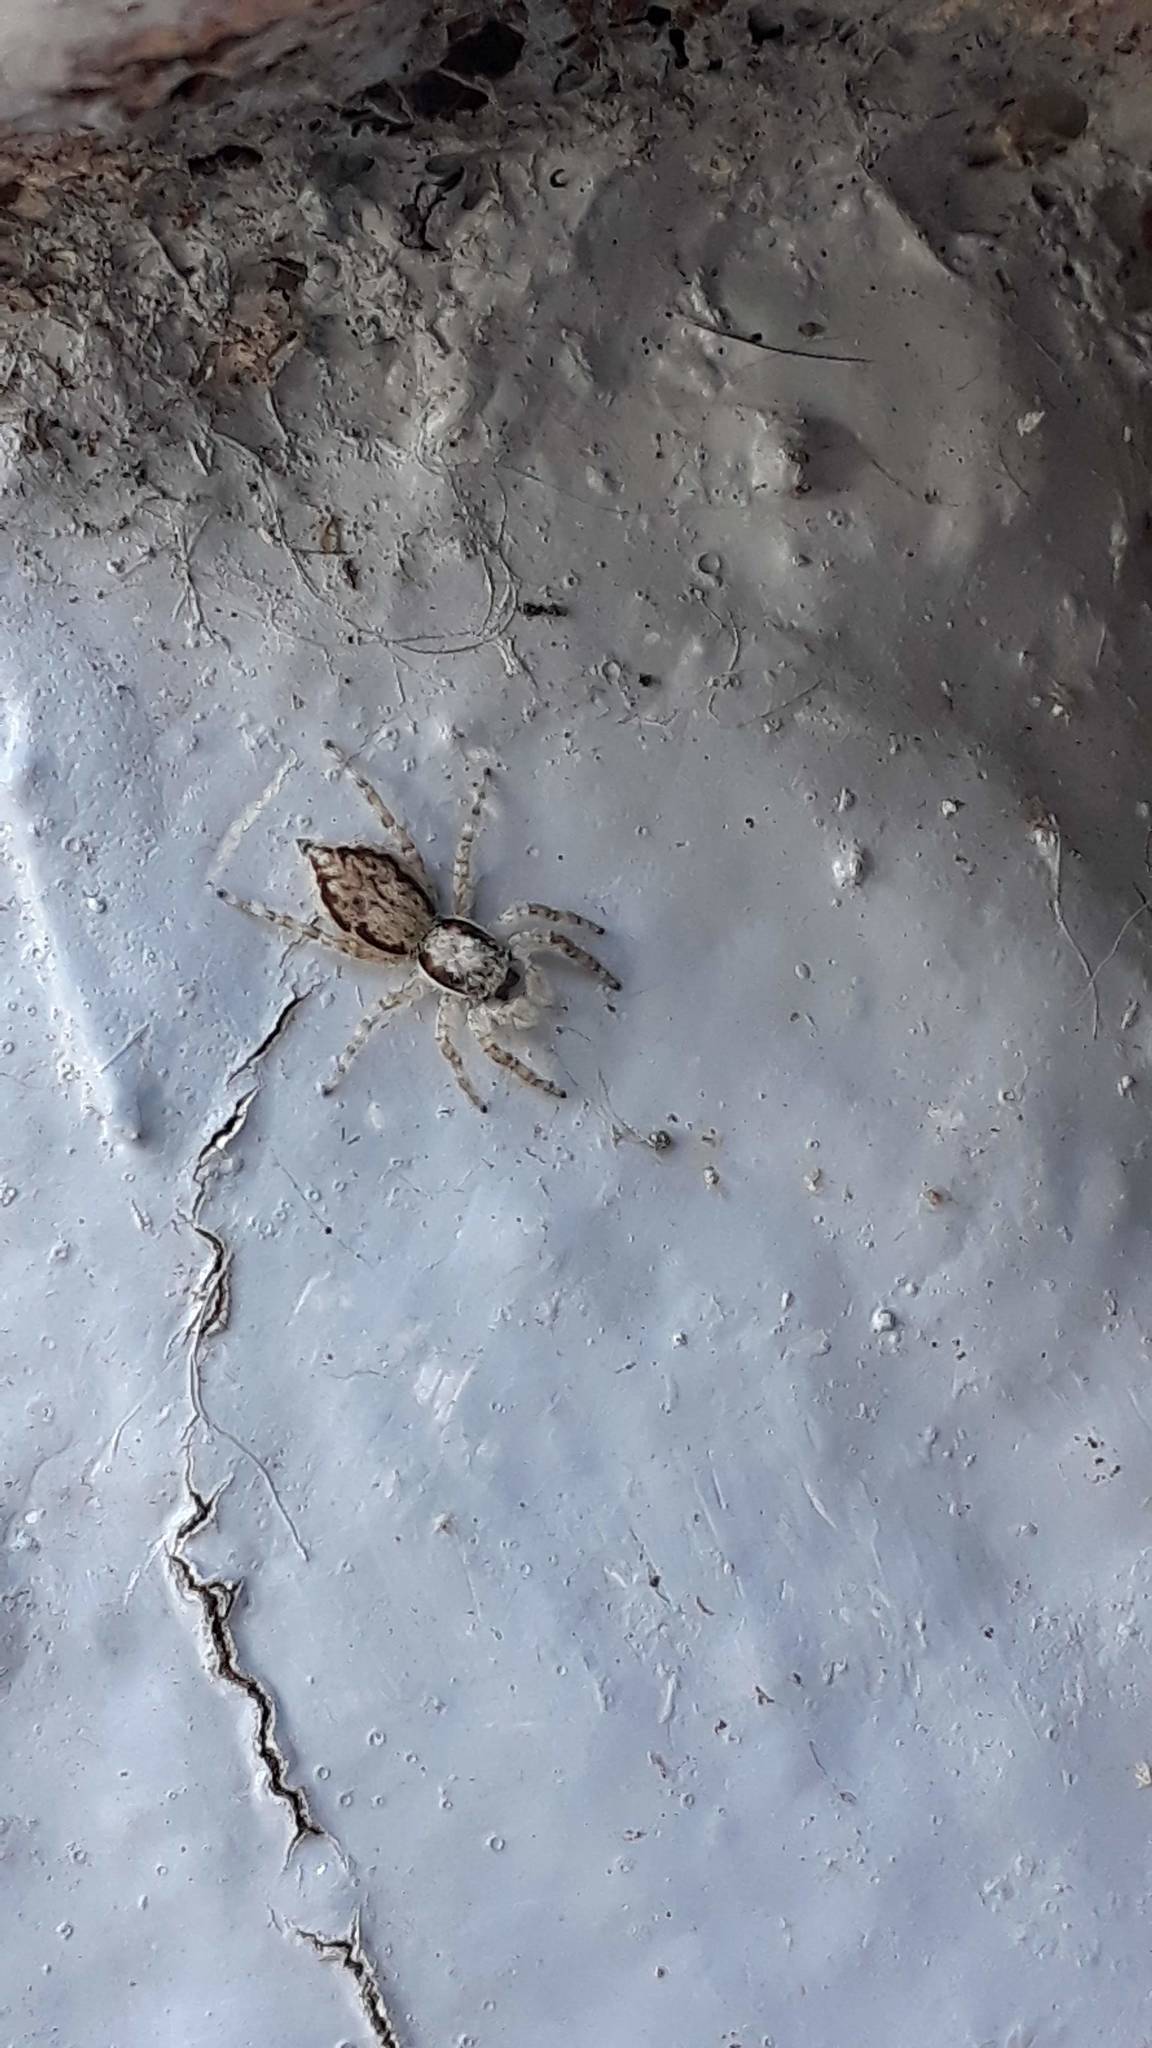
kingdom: Animalia
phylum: Arthropoda
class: Arachnida
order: Araneae
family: Salticidae
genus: Menemerus
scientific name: Menemerus bivittatus
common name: Gray wall jumper
